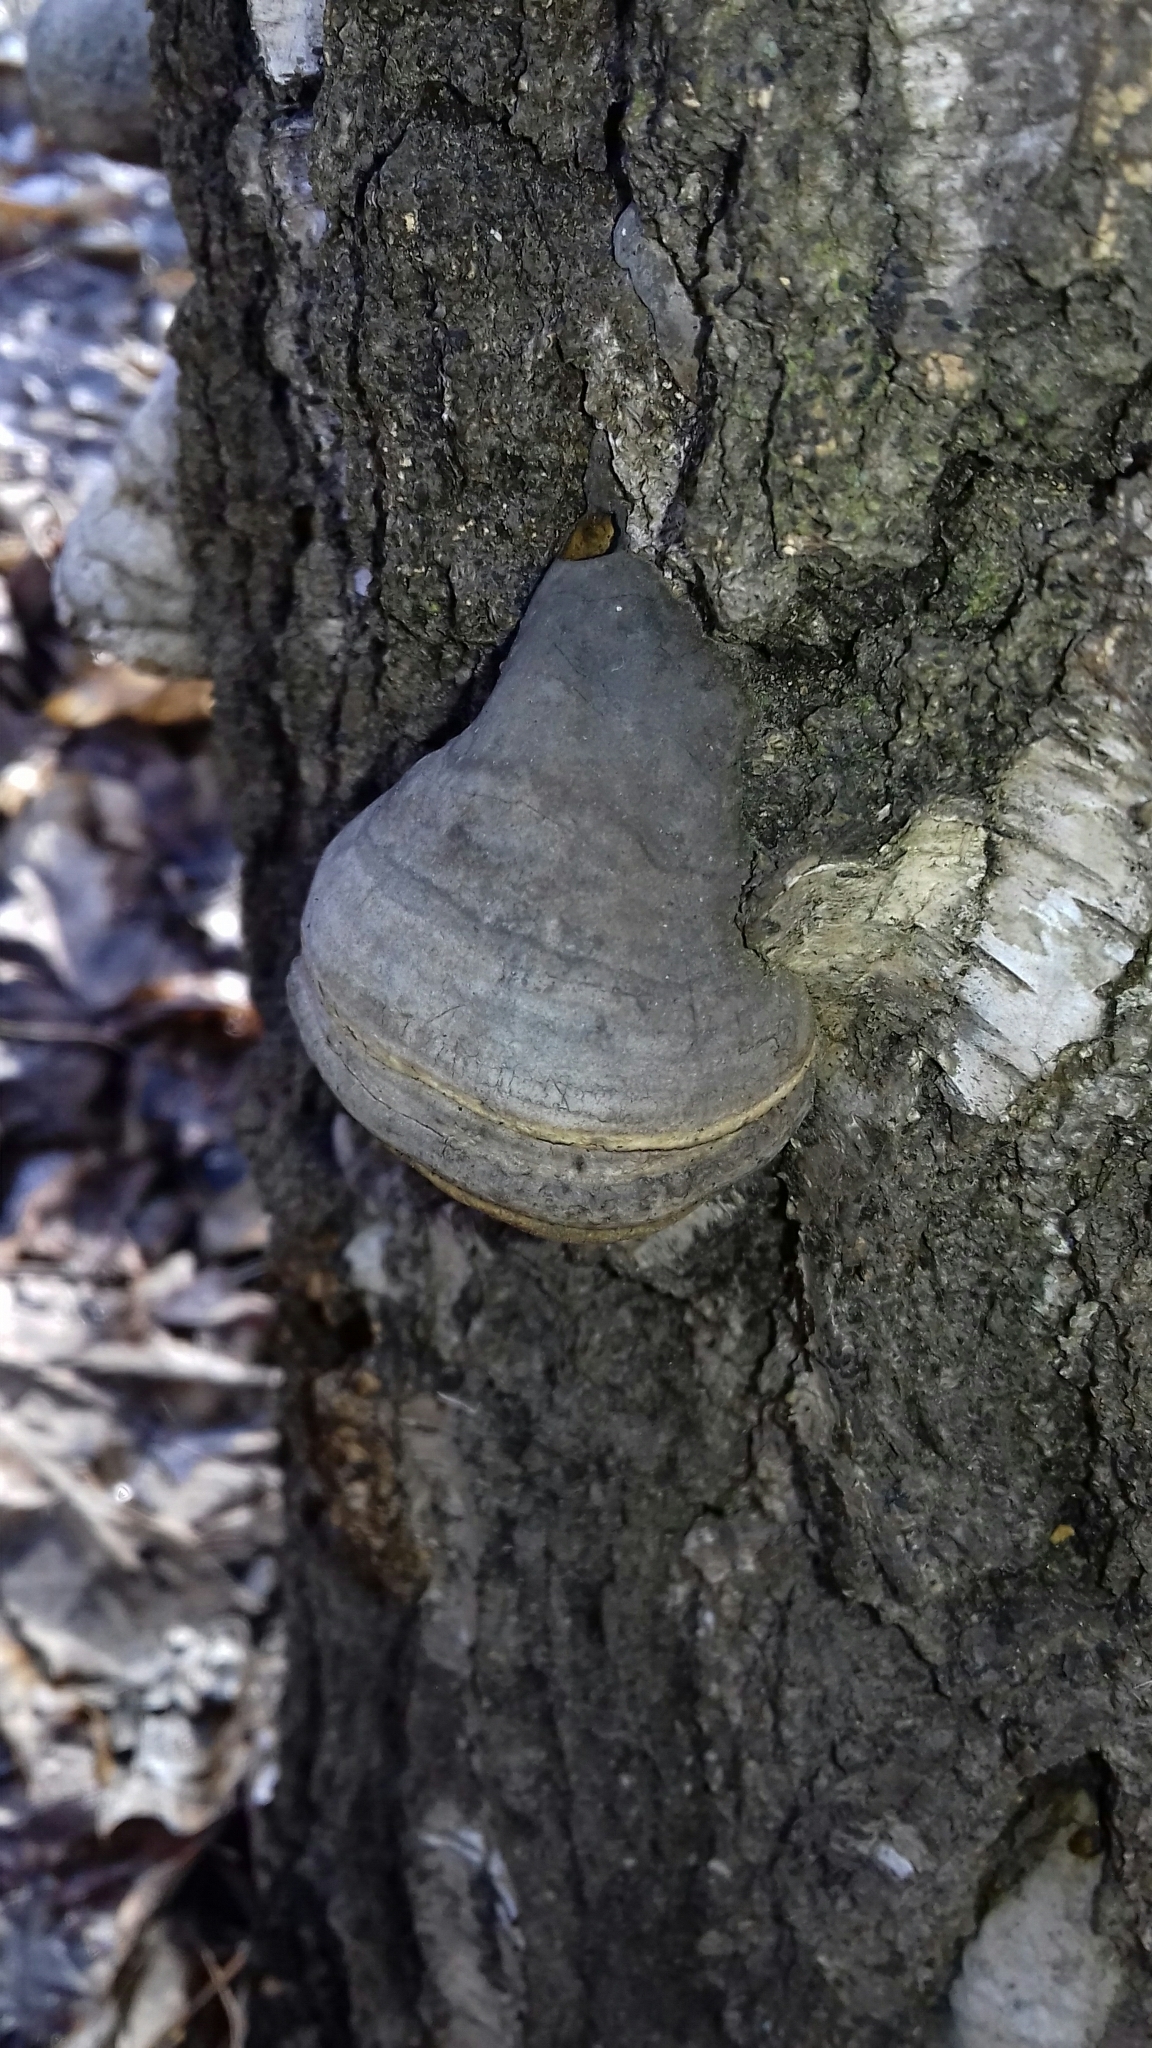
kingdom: Fungi
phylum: Basidiomycota
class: Agaricomycetes
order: Polyporales
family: Polyporaceae
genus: Fomes
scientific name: Fomes fomentarius
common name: Hoof fungus
